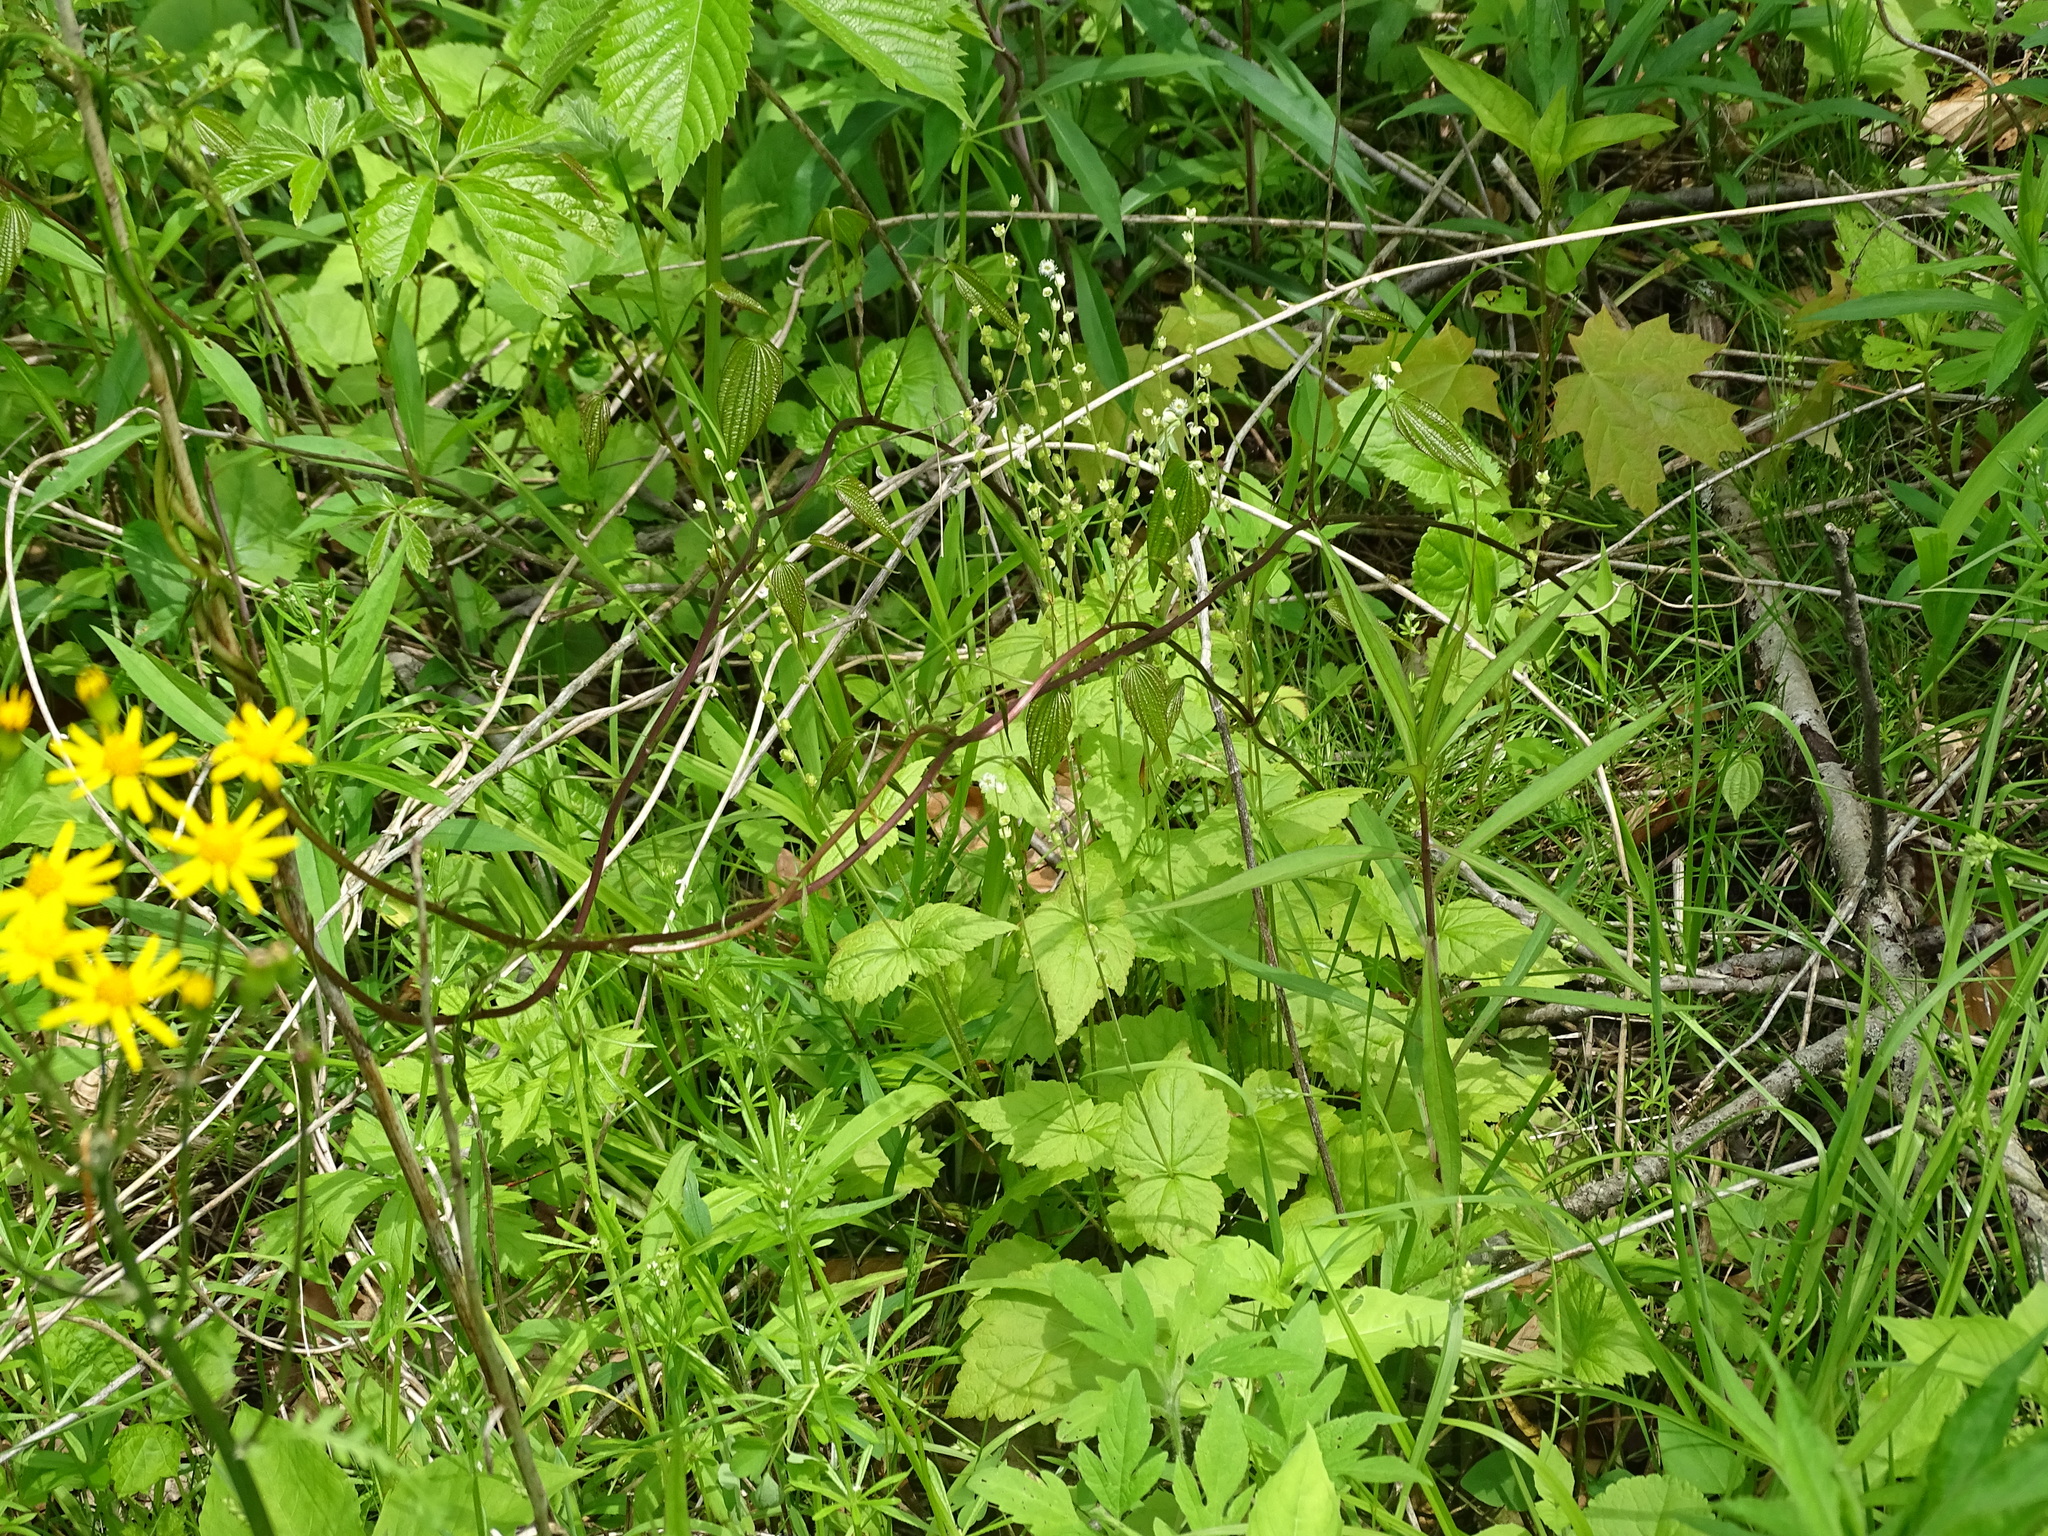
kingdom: Plantae
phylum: Tracheophyta
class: Magnoliopsida
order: Saxifragales
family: Saxifragaceae
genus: Mitella
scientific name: Mitella diphylla
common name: Coolwort
